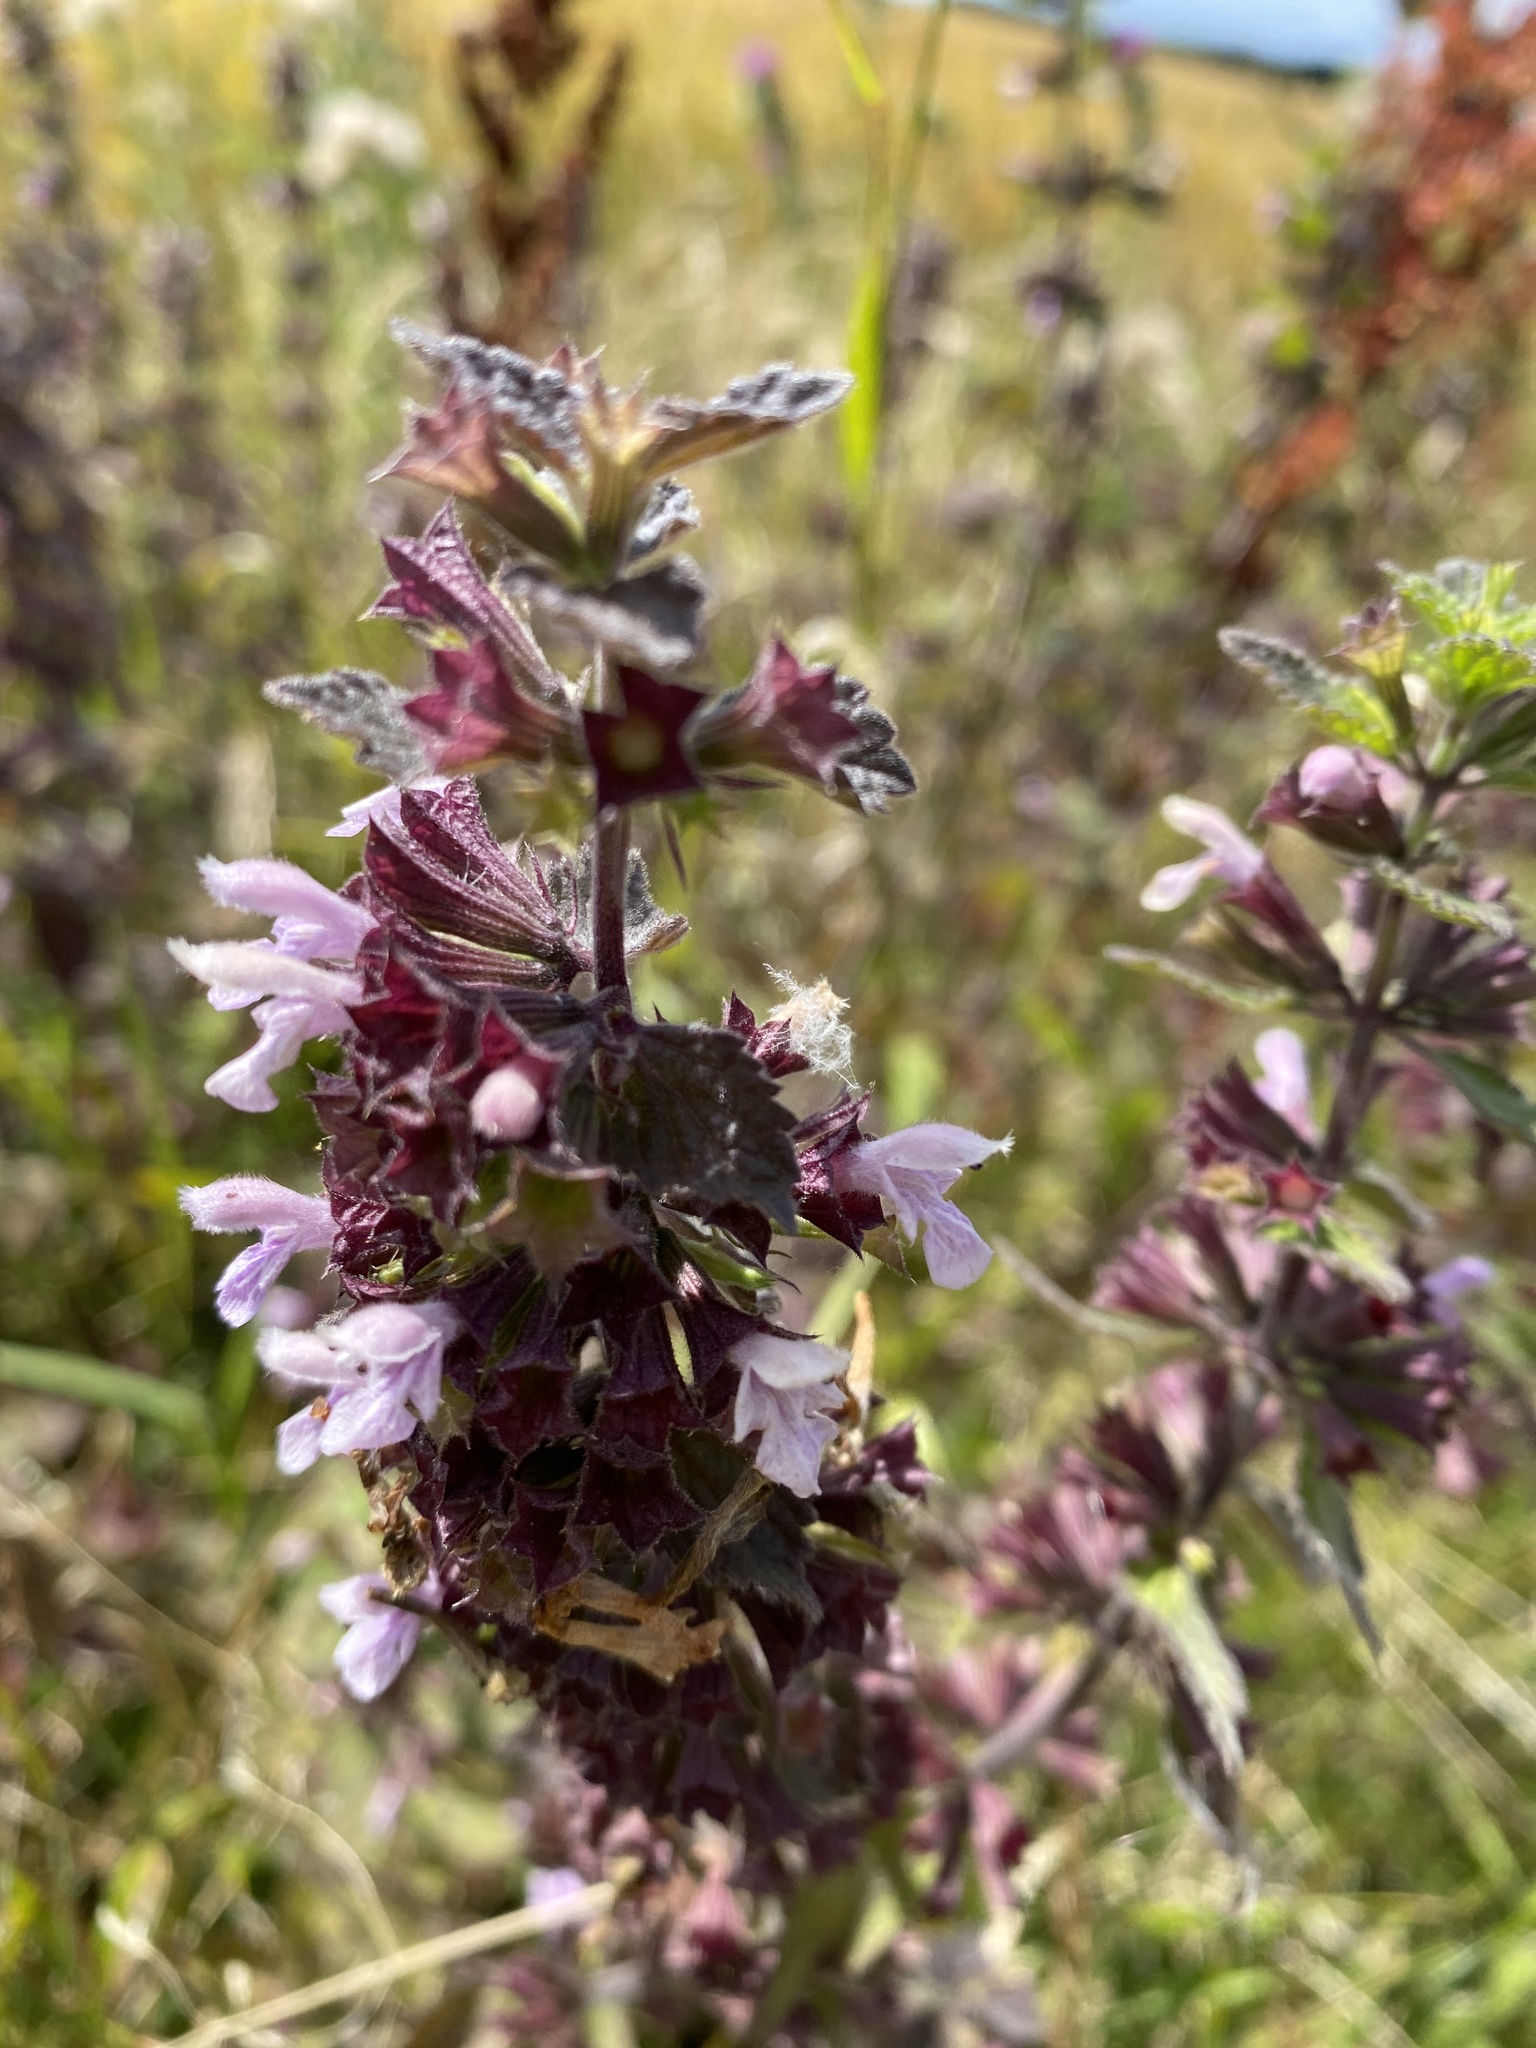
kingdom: Plantae
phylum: Tracheophyta
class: Magnoliopsida
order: Lamiales
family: Lamiaceae
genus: Ballota
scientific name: Ballota nigra
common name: Black horehound
